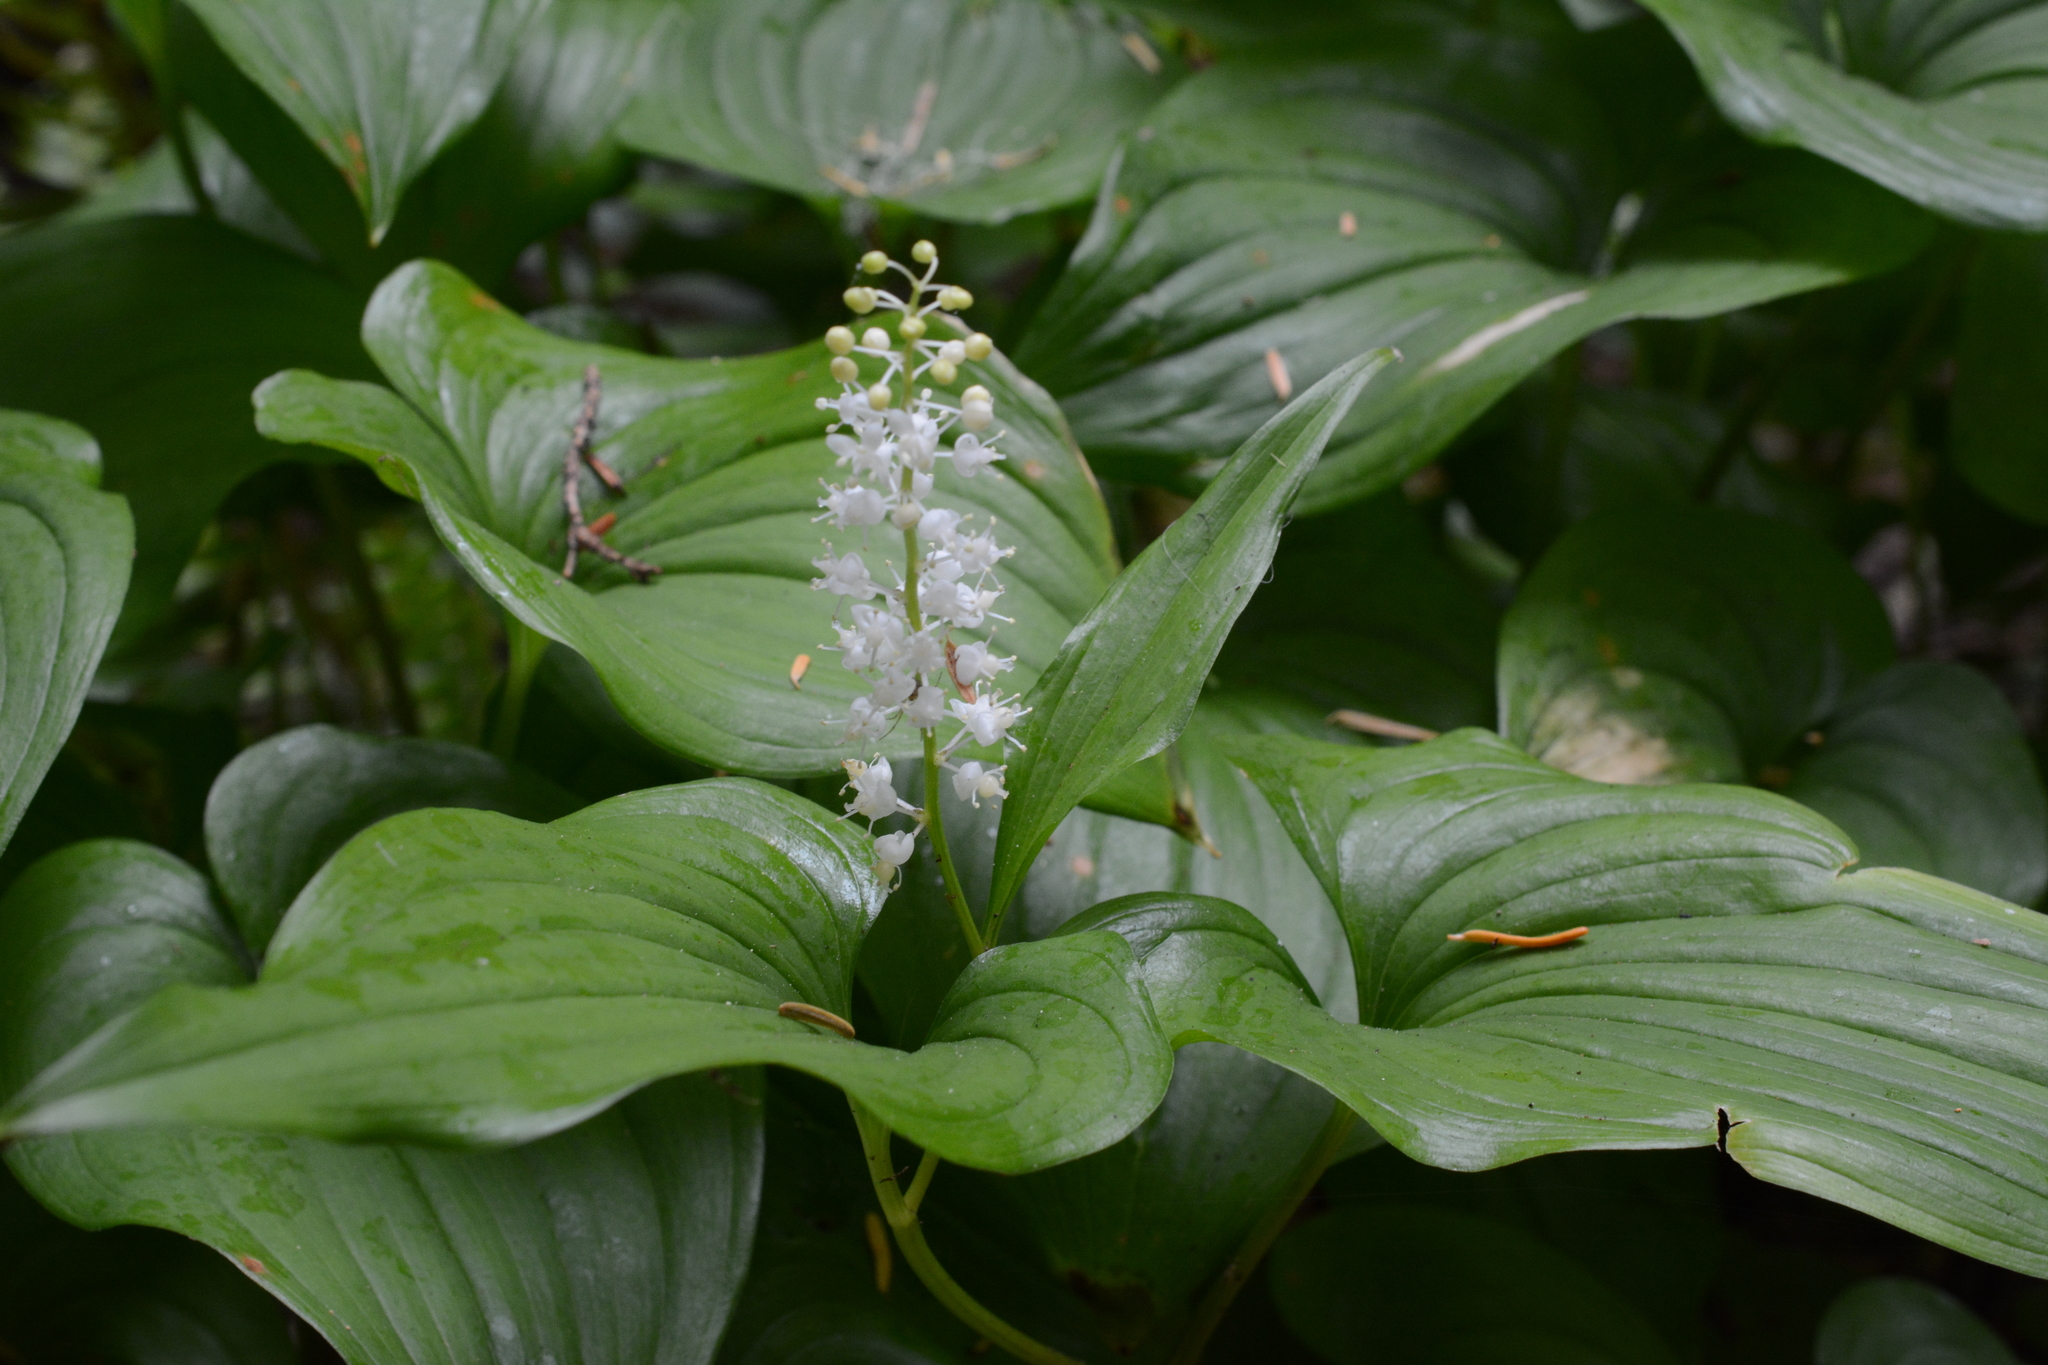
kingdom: Plantae
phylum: Tracheophyta
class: Liliopsida
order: Asparagales
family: Asparagaceae
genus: Maianthemum
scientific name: Maianthemum dilatatum
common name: False lily-of-the-valley
